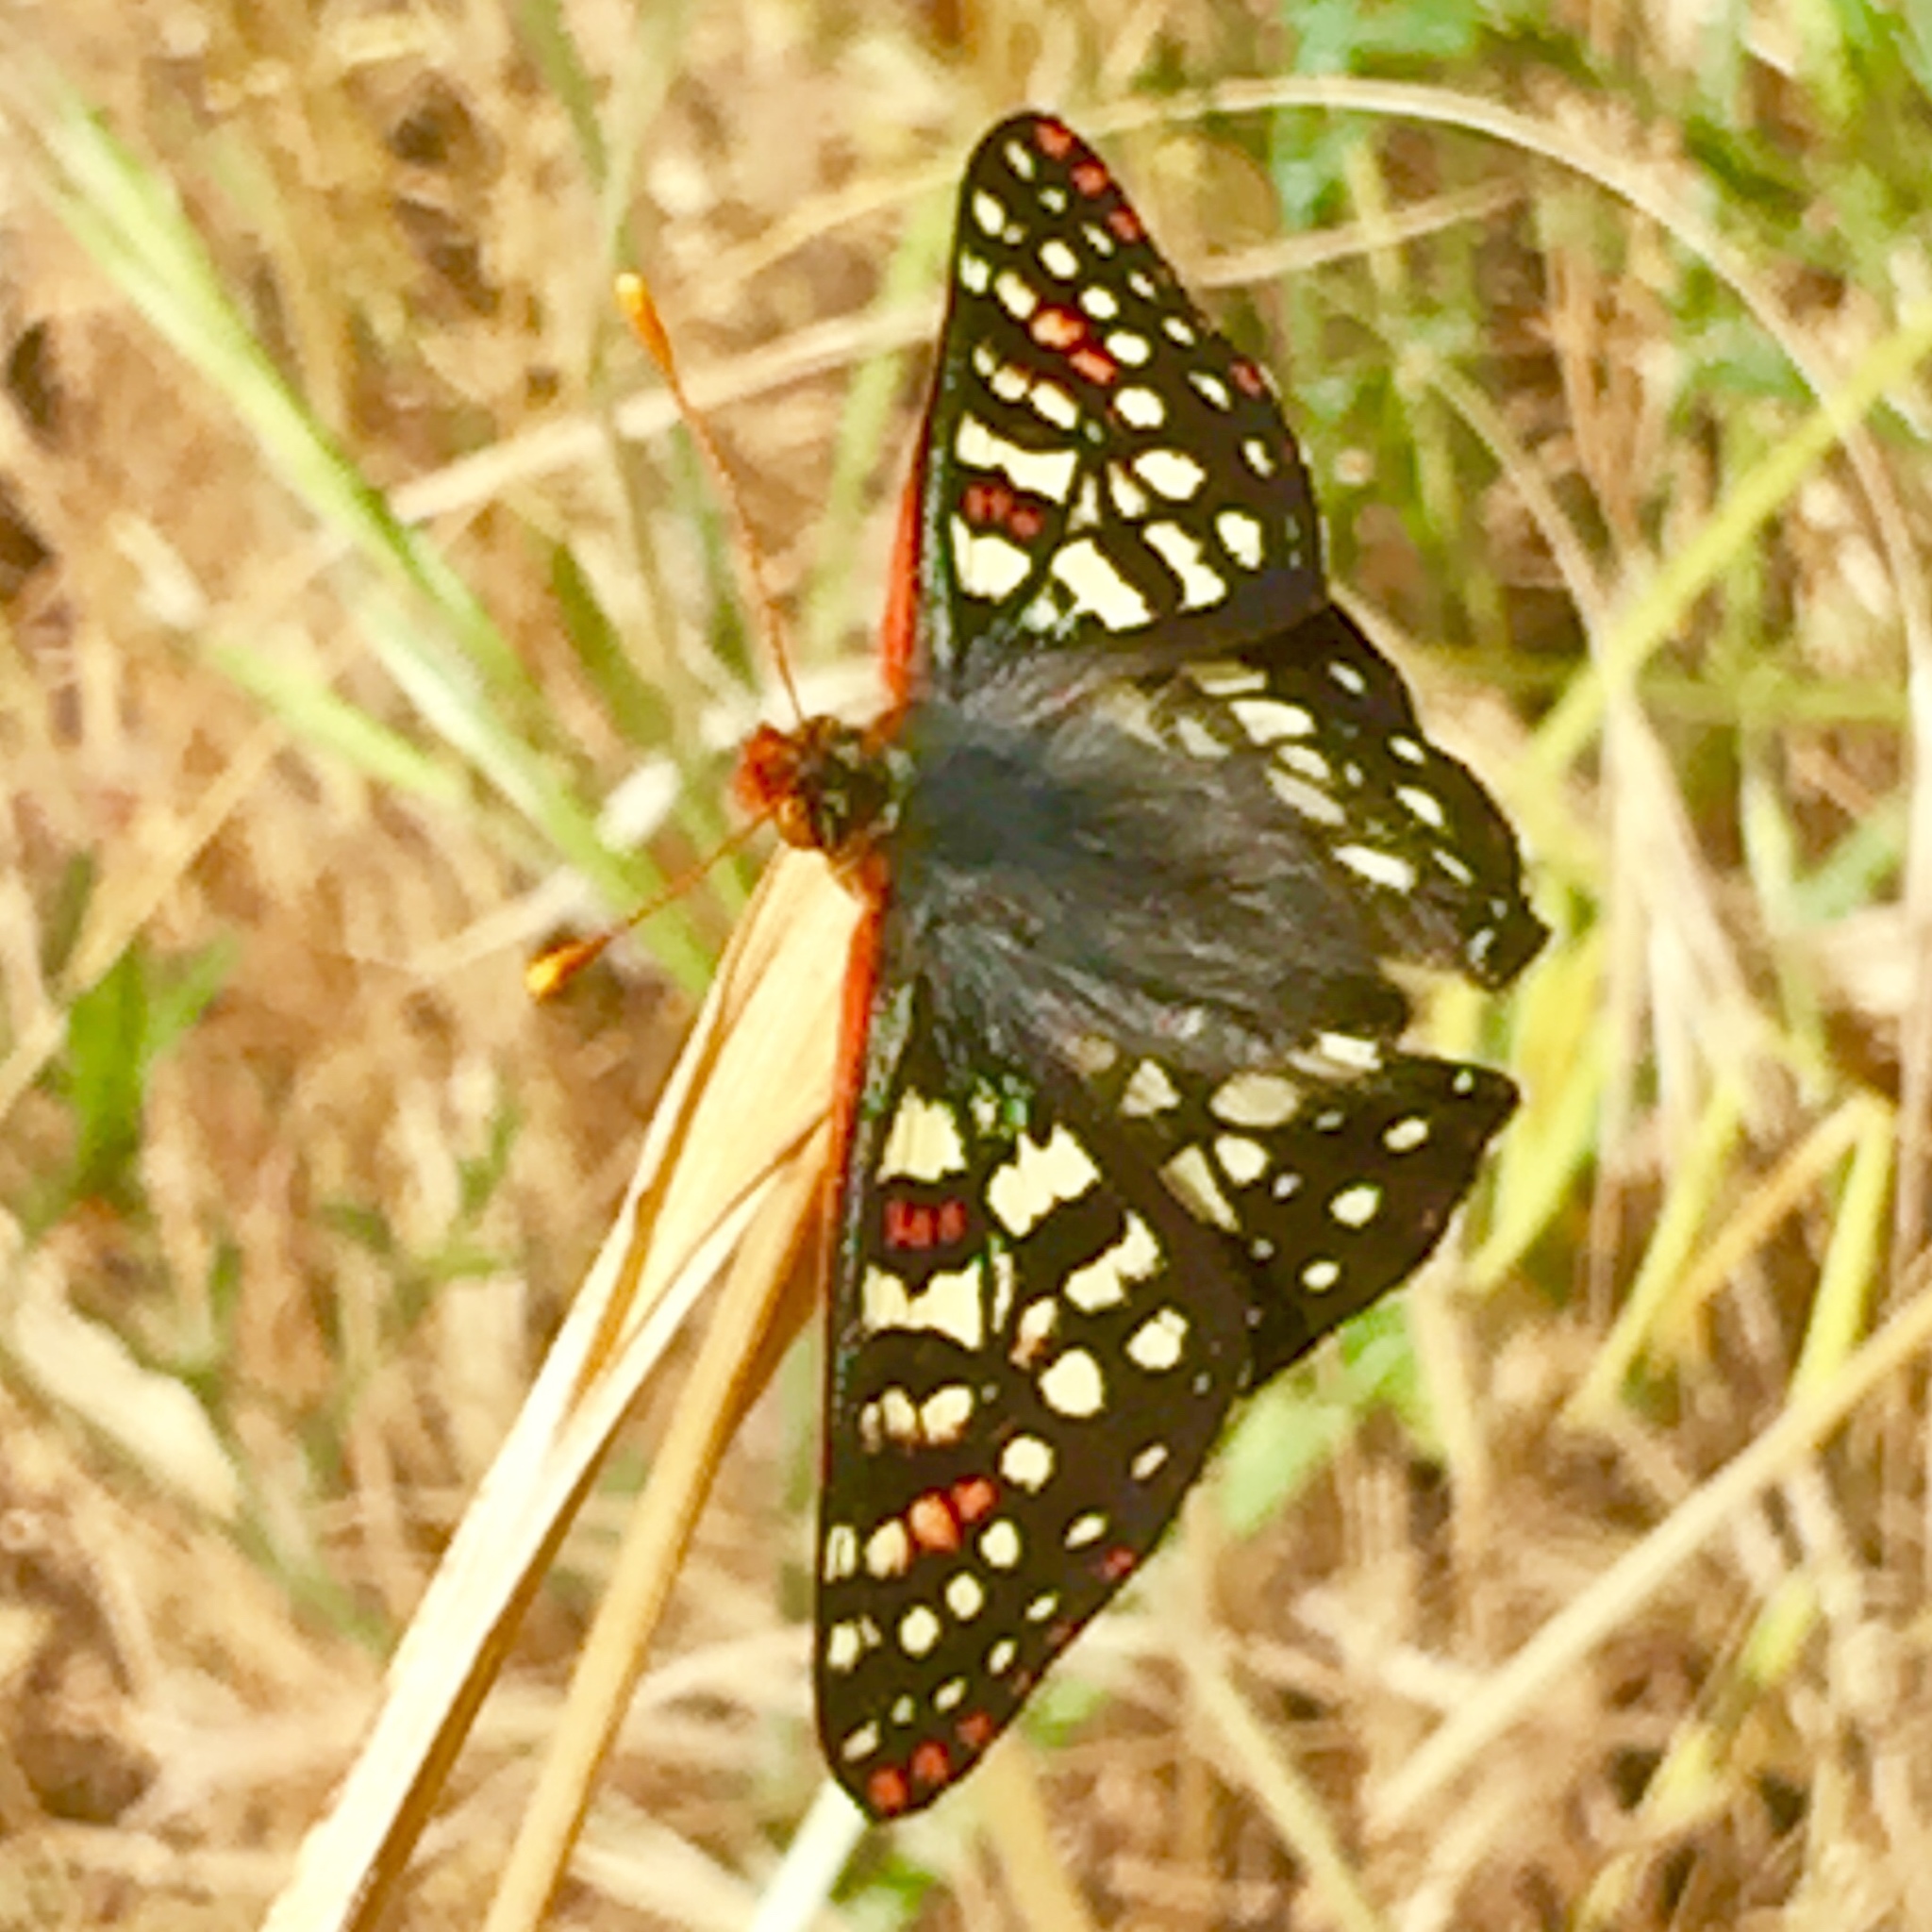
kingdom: Animalia
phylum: Arthropoda
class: Insecta
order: Lepidoptera
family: Nymphalidae
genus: Occidryas
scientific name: Occidryas chalcedona
